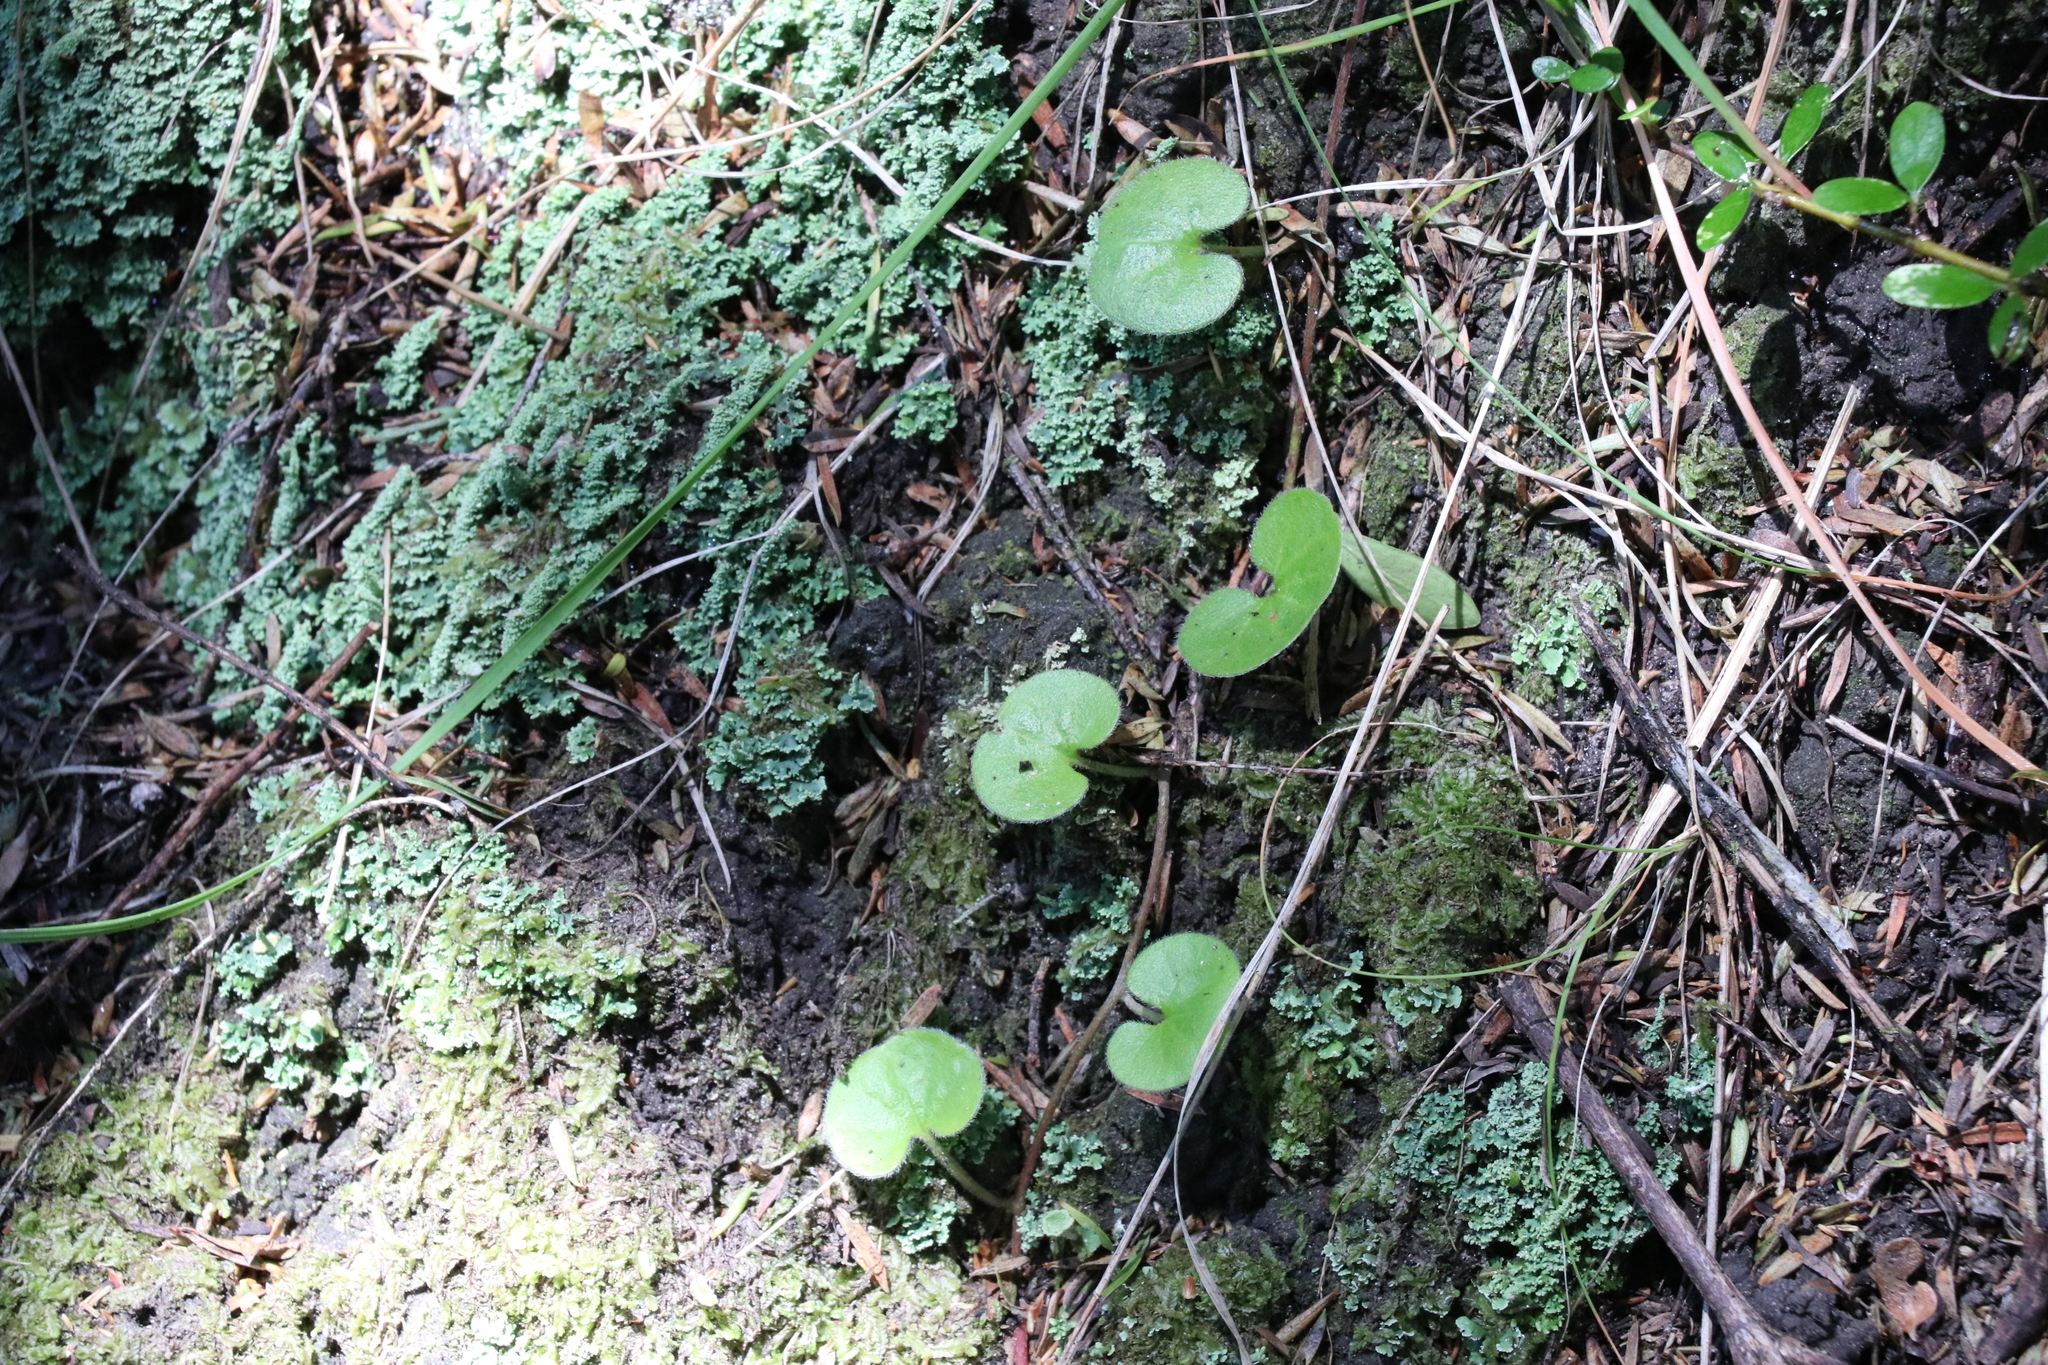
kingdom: Plantae
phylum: Tracheophyta
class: Magnoliopsida
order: Solanales
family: Convolvulaceae
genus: Dichondra
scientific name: Dichondra repens
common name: Kidneyweed
